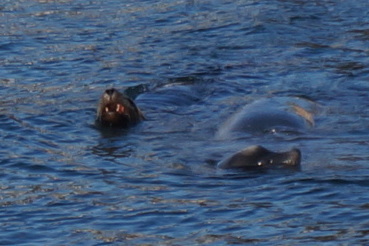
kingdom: Animalia
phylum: Chordata
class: Mammalia
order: Carnivora
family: Otariidae
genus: Zalophus
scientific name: Zalophus californianus
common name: California sea lion
